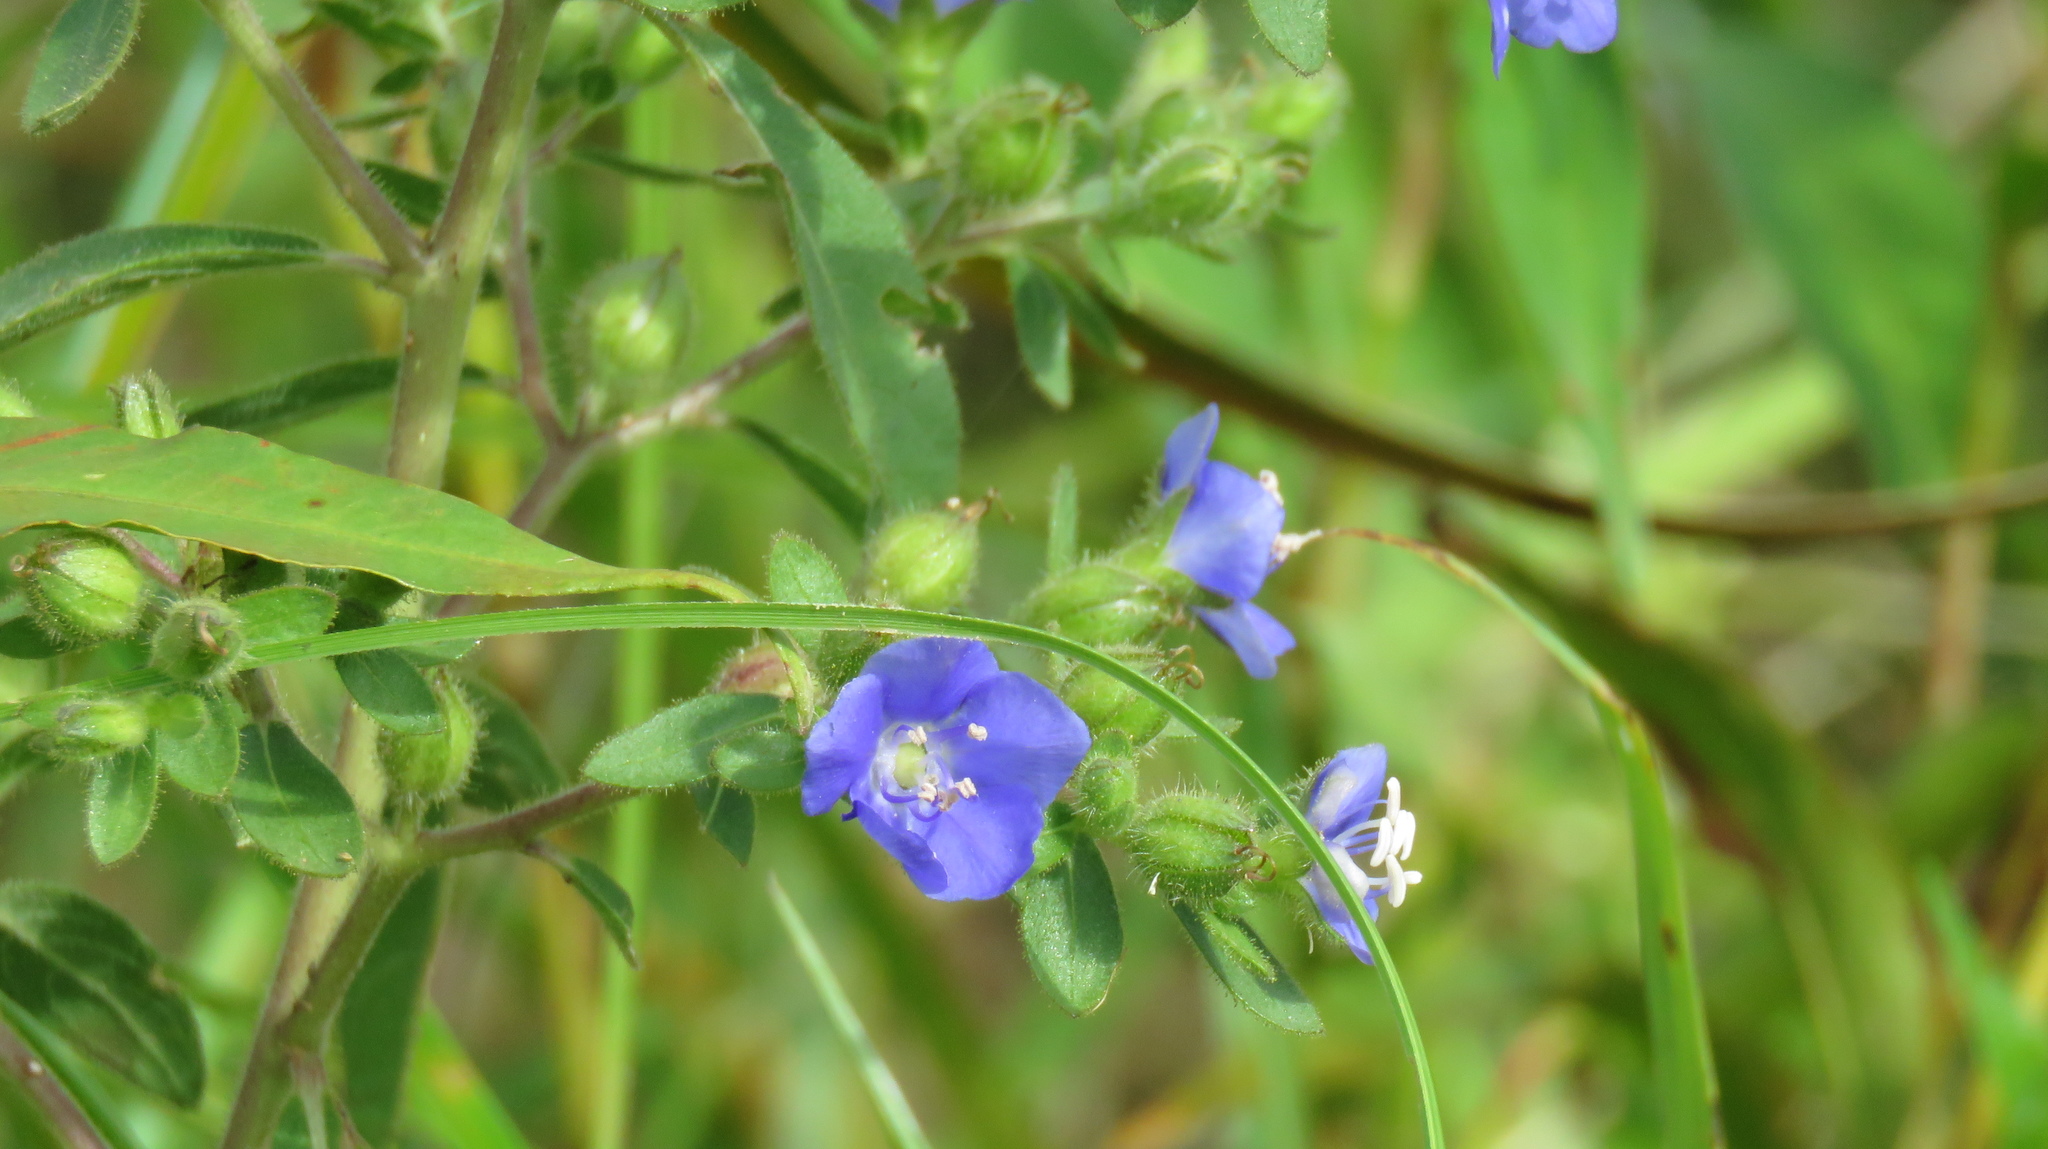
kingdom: Plantae
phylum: Tracheophyta
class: Magnoliopsida
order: Solanales
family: Hydroleaceae
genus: Hydrolea
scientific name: Hydrolea spinosa
